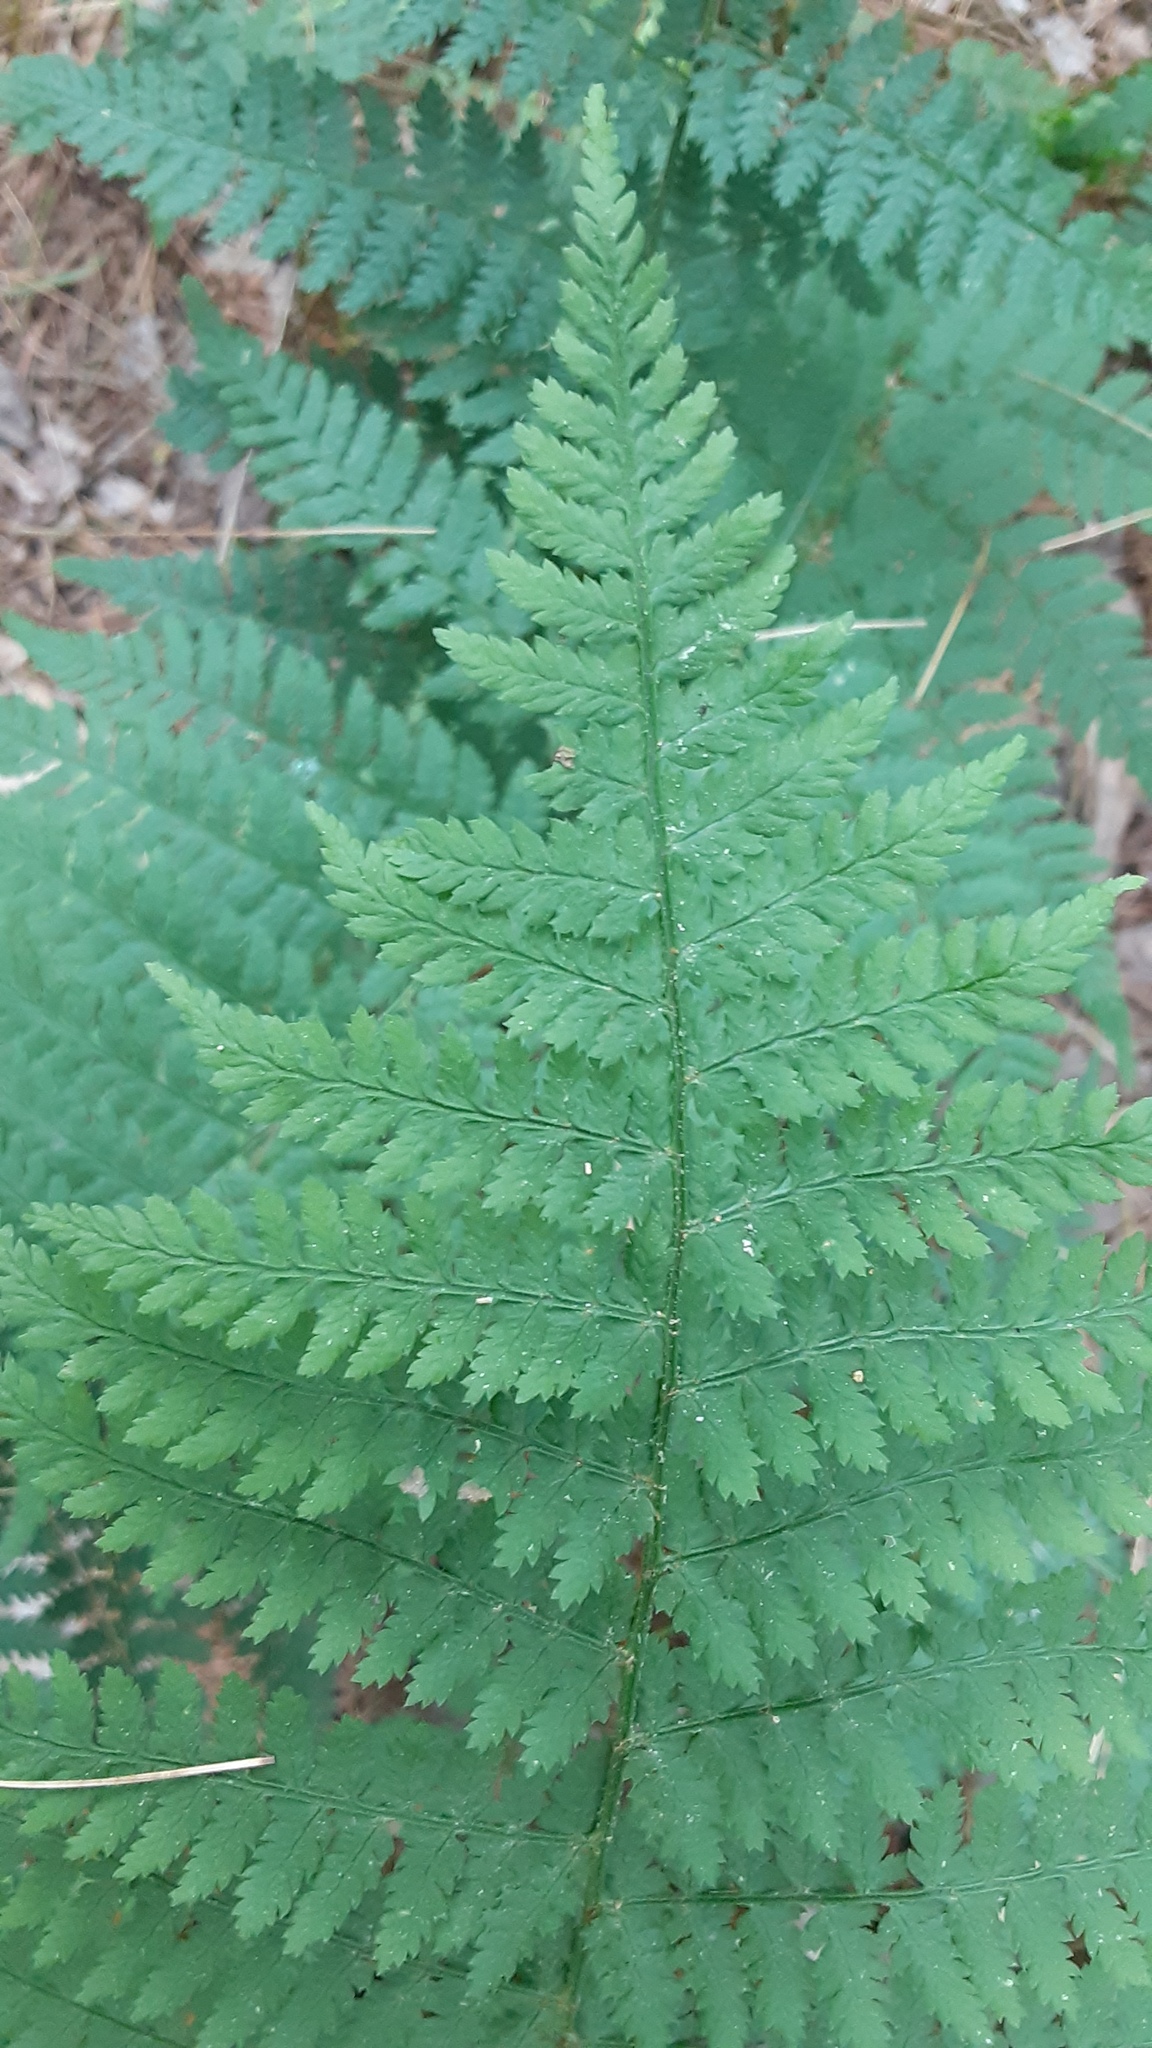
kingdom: Plantae
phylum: Tracheophyta
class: Polypodiopsida
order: Polypodiales
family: Dryopteridaceae
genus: Dryopteris
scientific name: Dryopteris intermedia
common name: Evergreen wood fern
